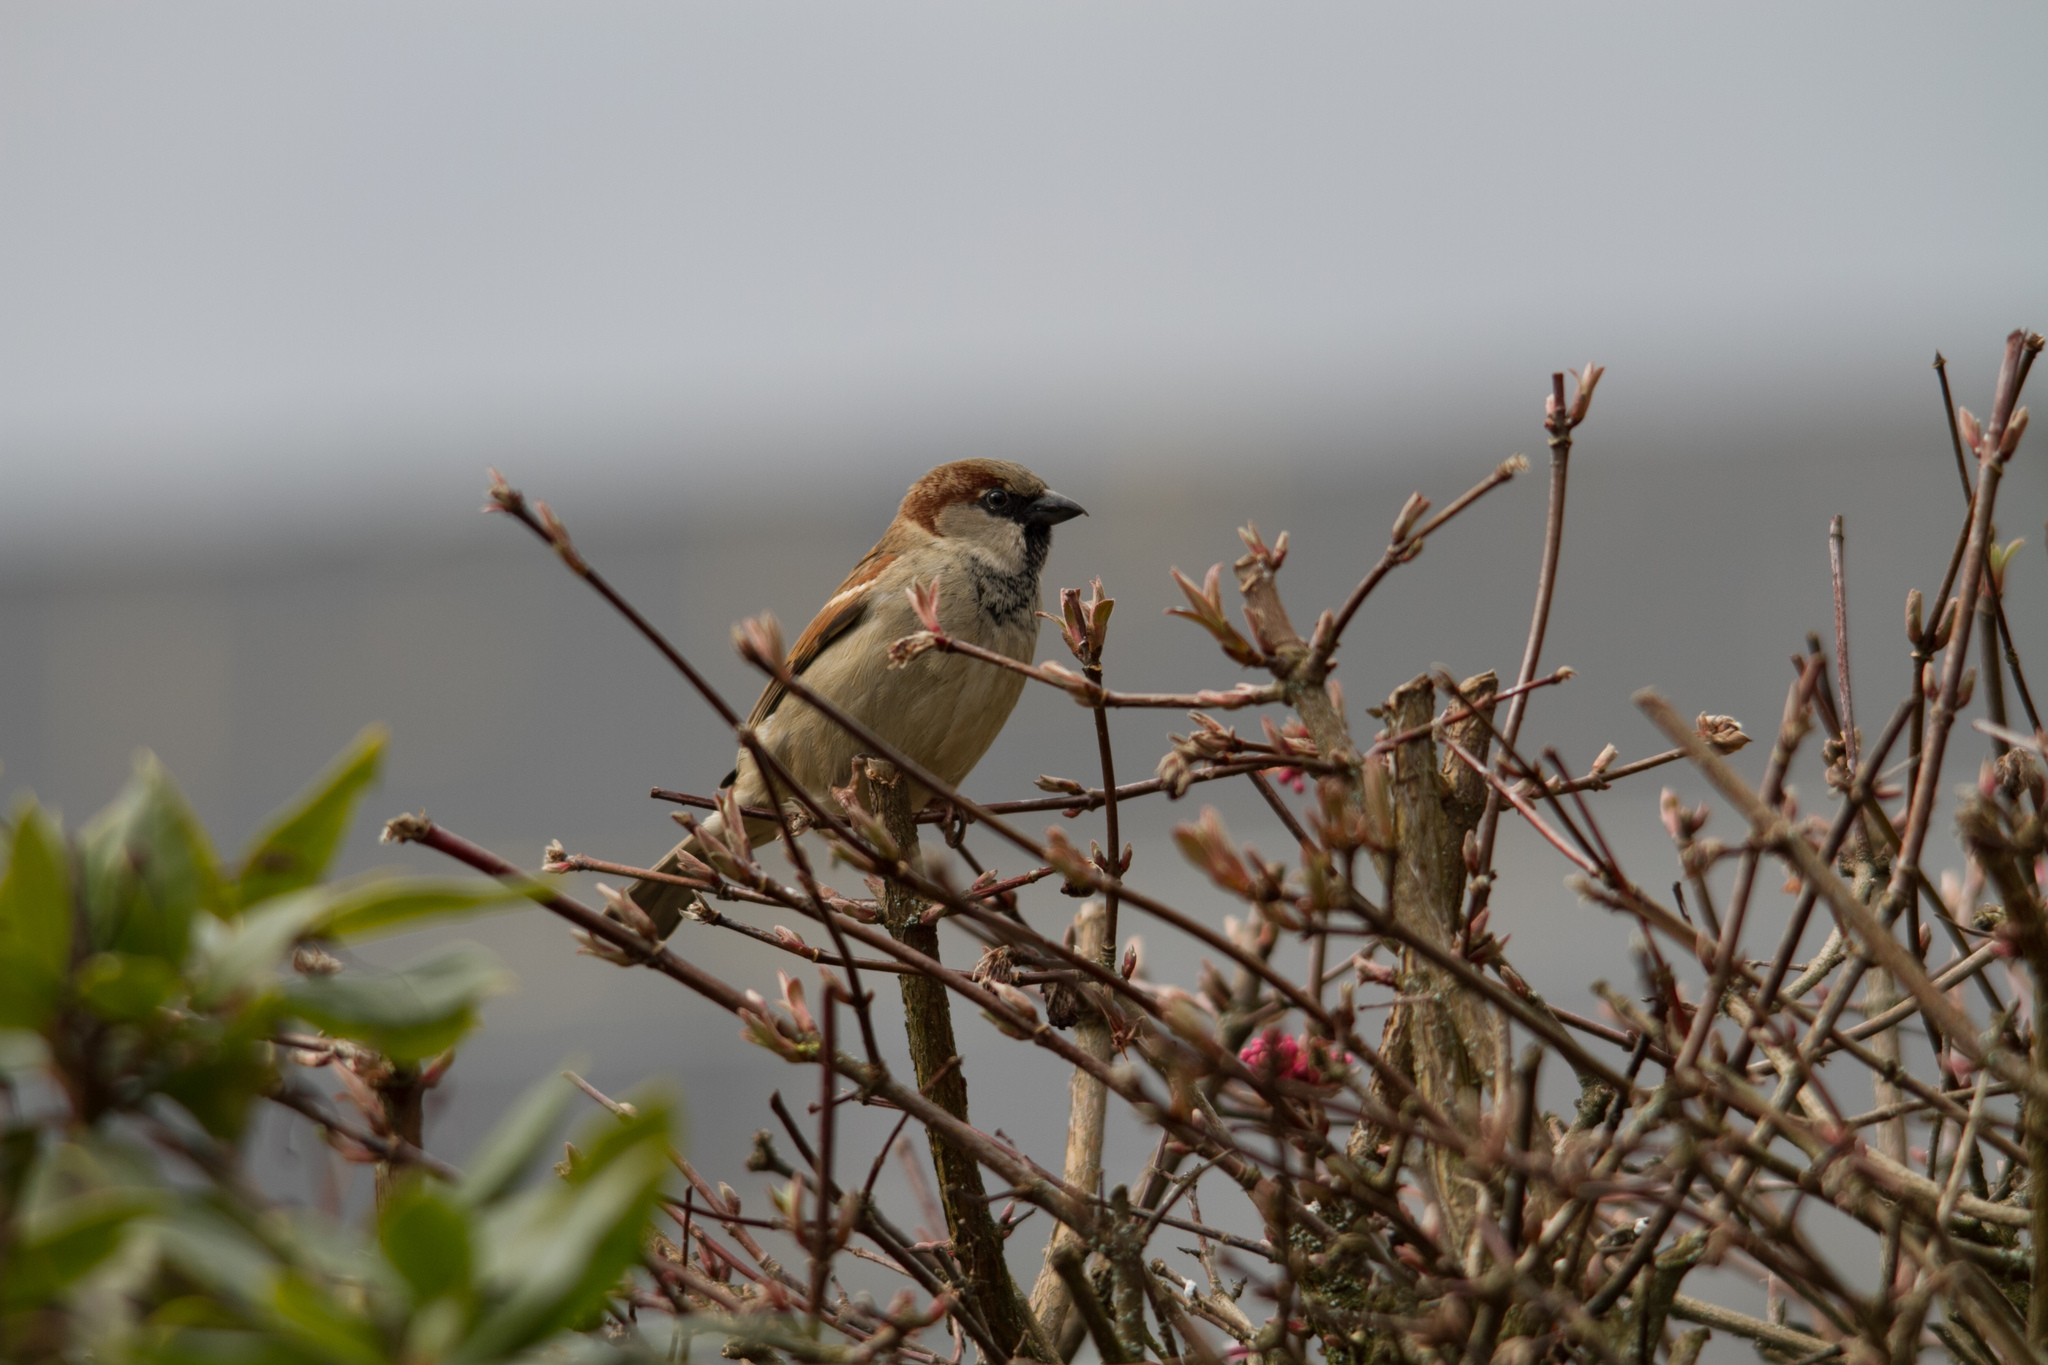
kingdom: Animalia
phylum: Chordata
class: Aves
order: Passeriformes
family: Passeridae
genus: Passer
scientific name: Passer domesticus
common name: House sparrow
